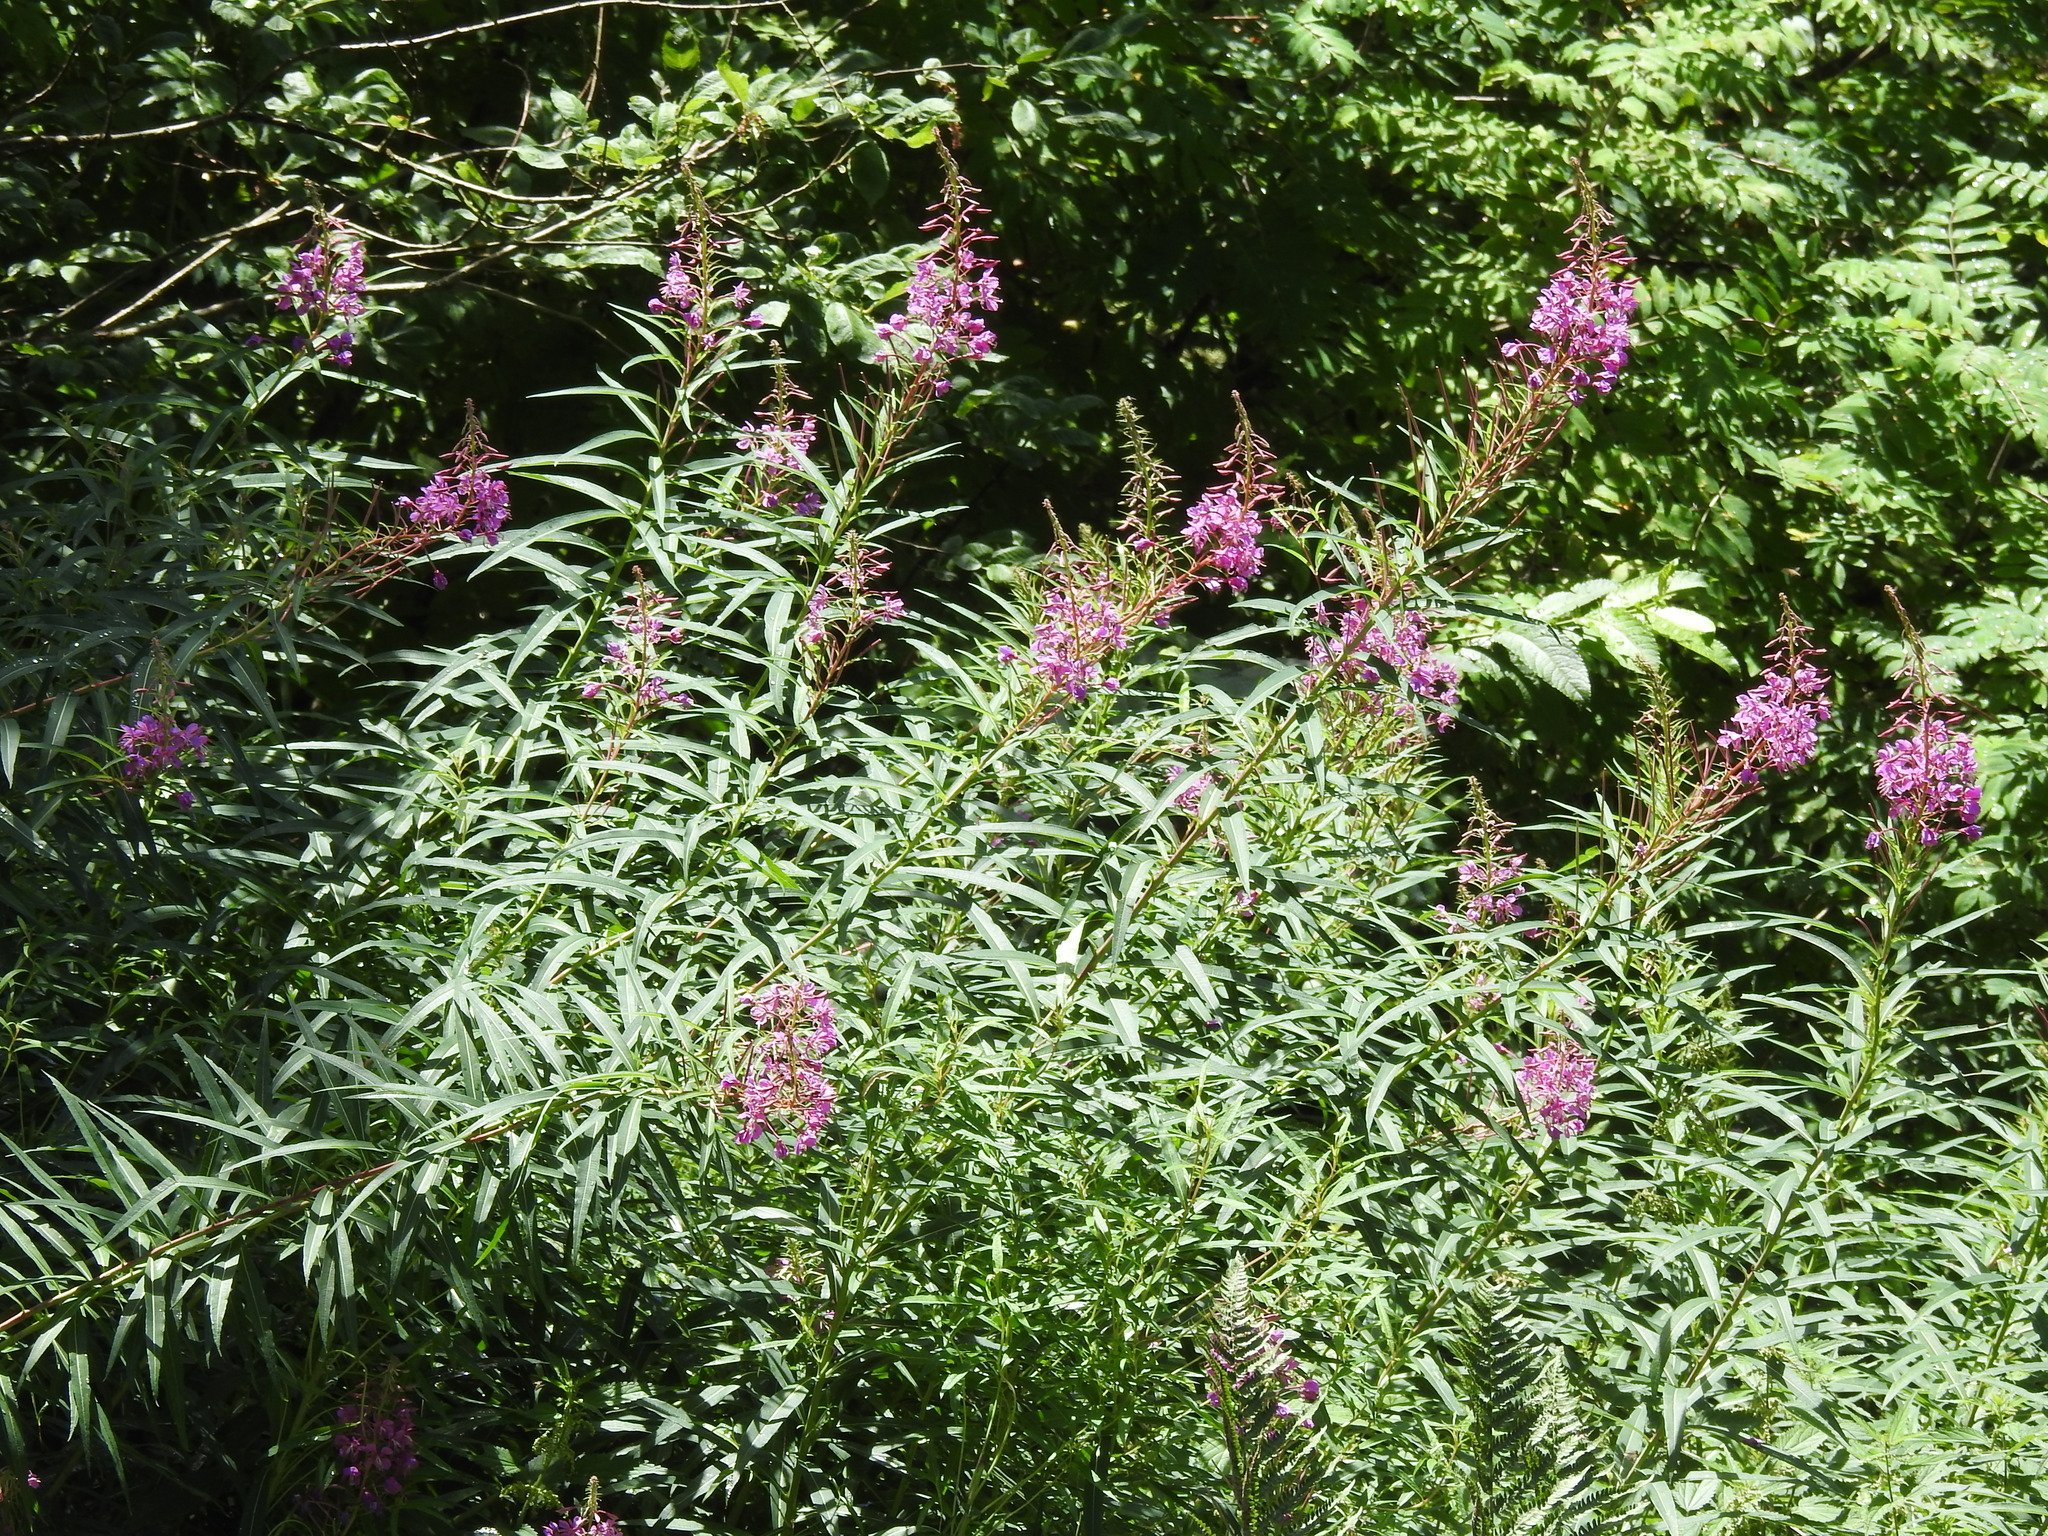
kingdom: Plantae
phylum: Tracheophyta
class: Magnoliopsida
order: Myrtales
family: Onagraceae
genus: Chamaenerion
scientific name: Chamaenerion angustifolium
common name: Fireweed
